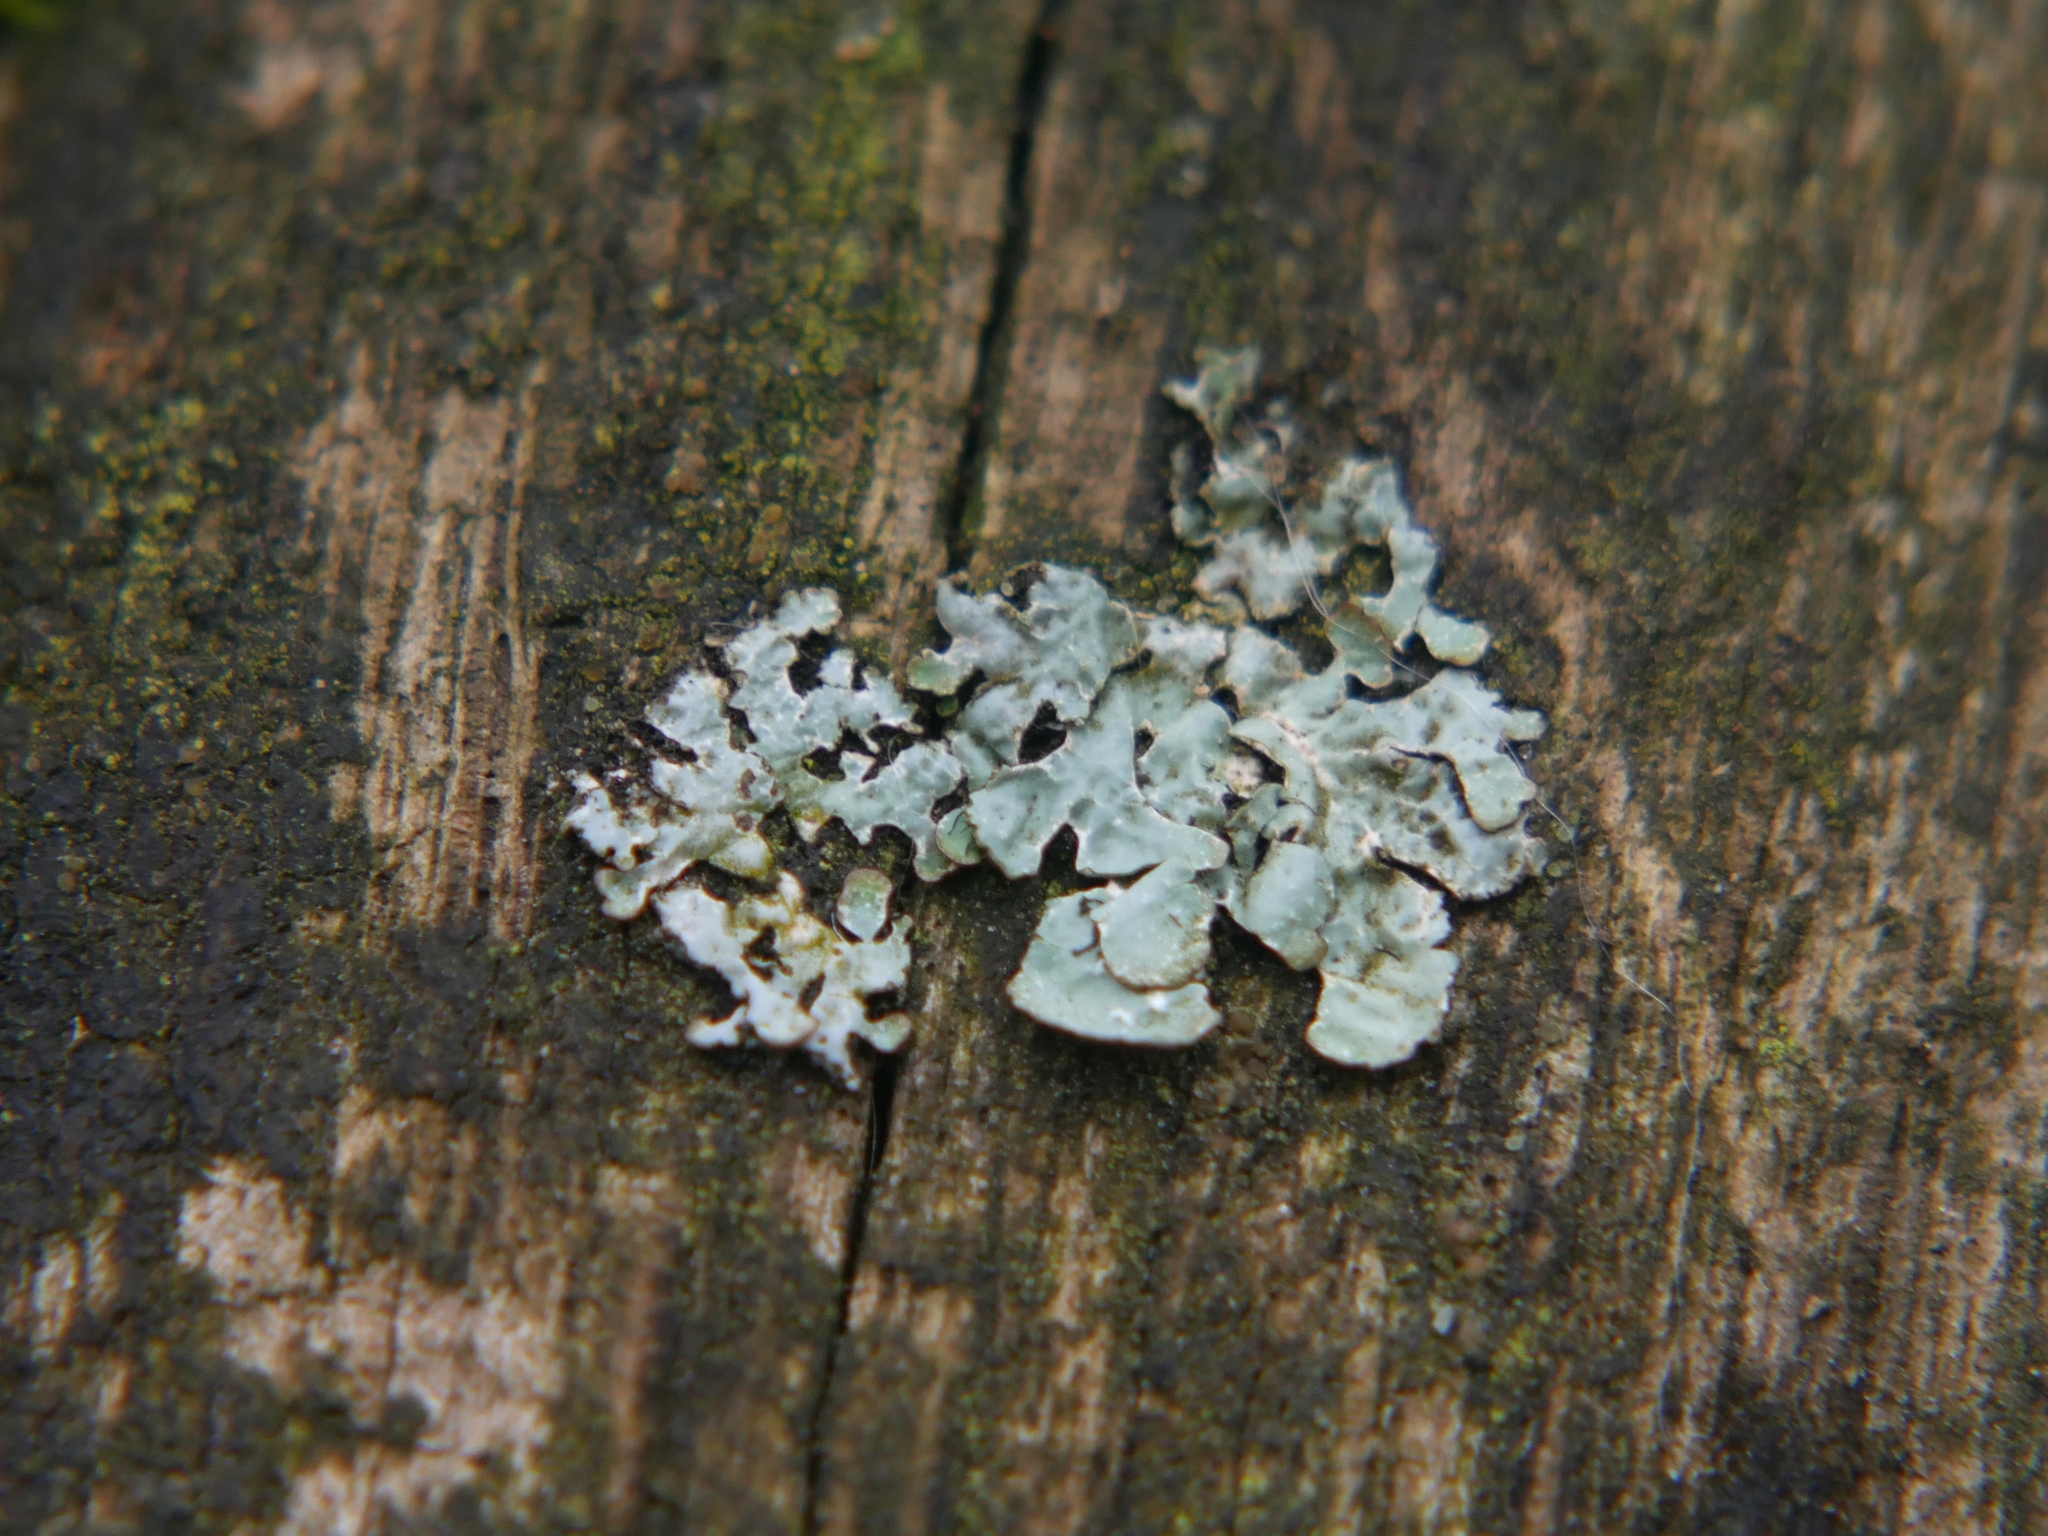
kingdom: Fungi
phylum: Ascomycota
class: Lecanoromycetes
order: Lecanorales
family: Parmeliaceae
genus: Parmelia
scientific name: Parmelia sulcata
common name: Netted shield lichen
